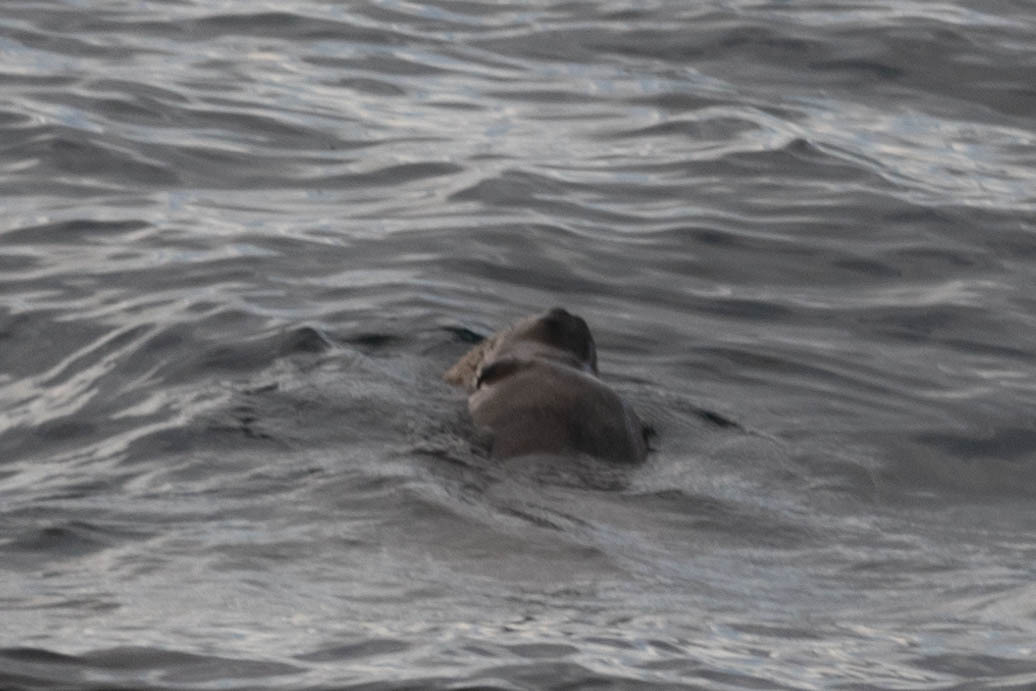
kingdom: Animalia
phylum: Chordata
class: Mammalia
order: Carnivora
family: Otariidae
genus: Zalophus
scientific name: Zalophus californianus
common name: California sea lion
